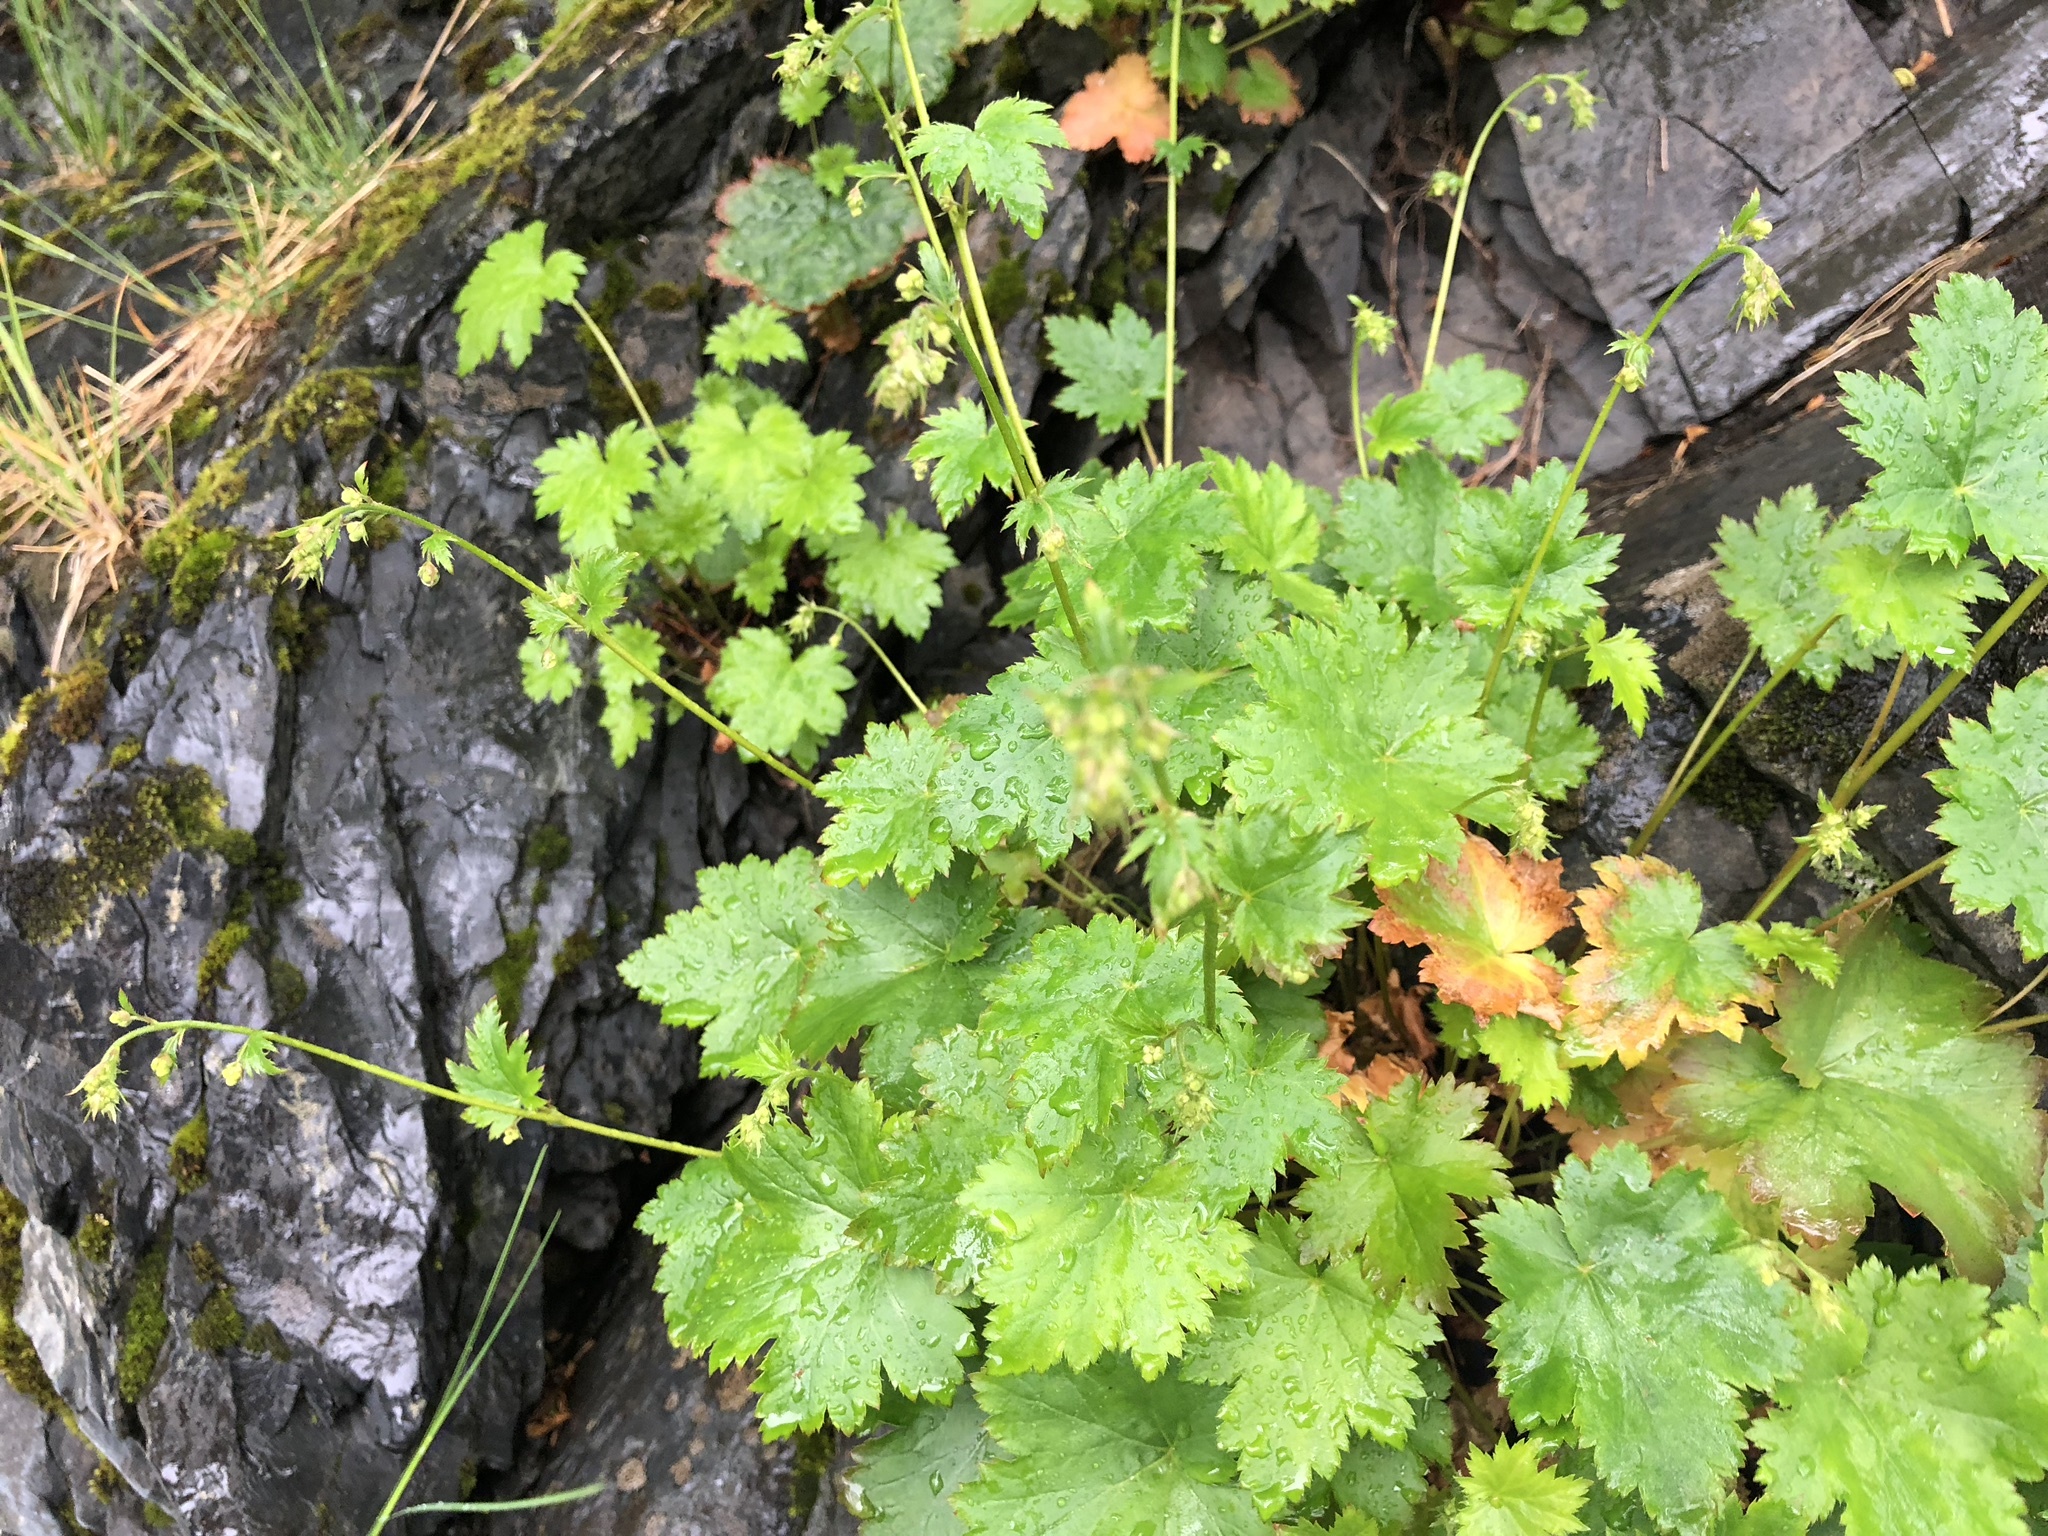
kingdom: Plantae
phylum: Tracheophyta
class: Magnoliopsida
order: Saxifragales
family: Saxifragaceae
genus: Heuchera
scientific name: Heuchera glabra
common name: Alpine alumroot
